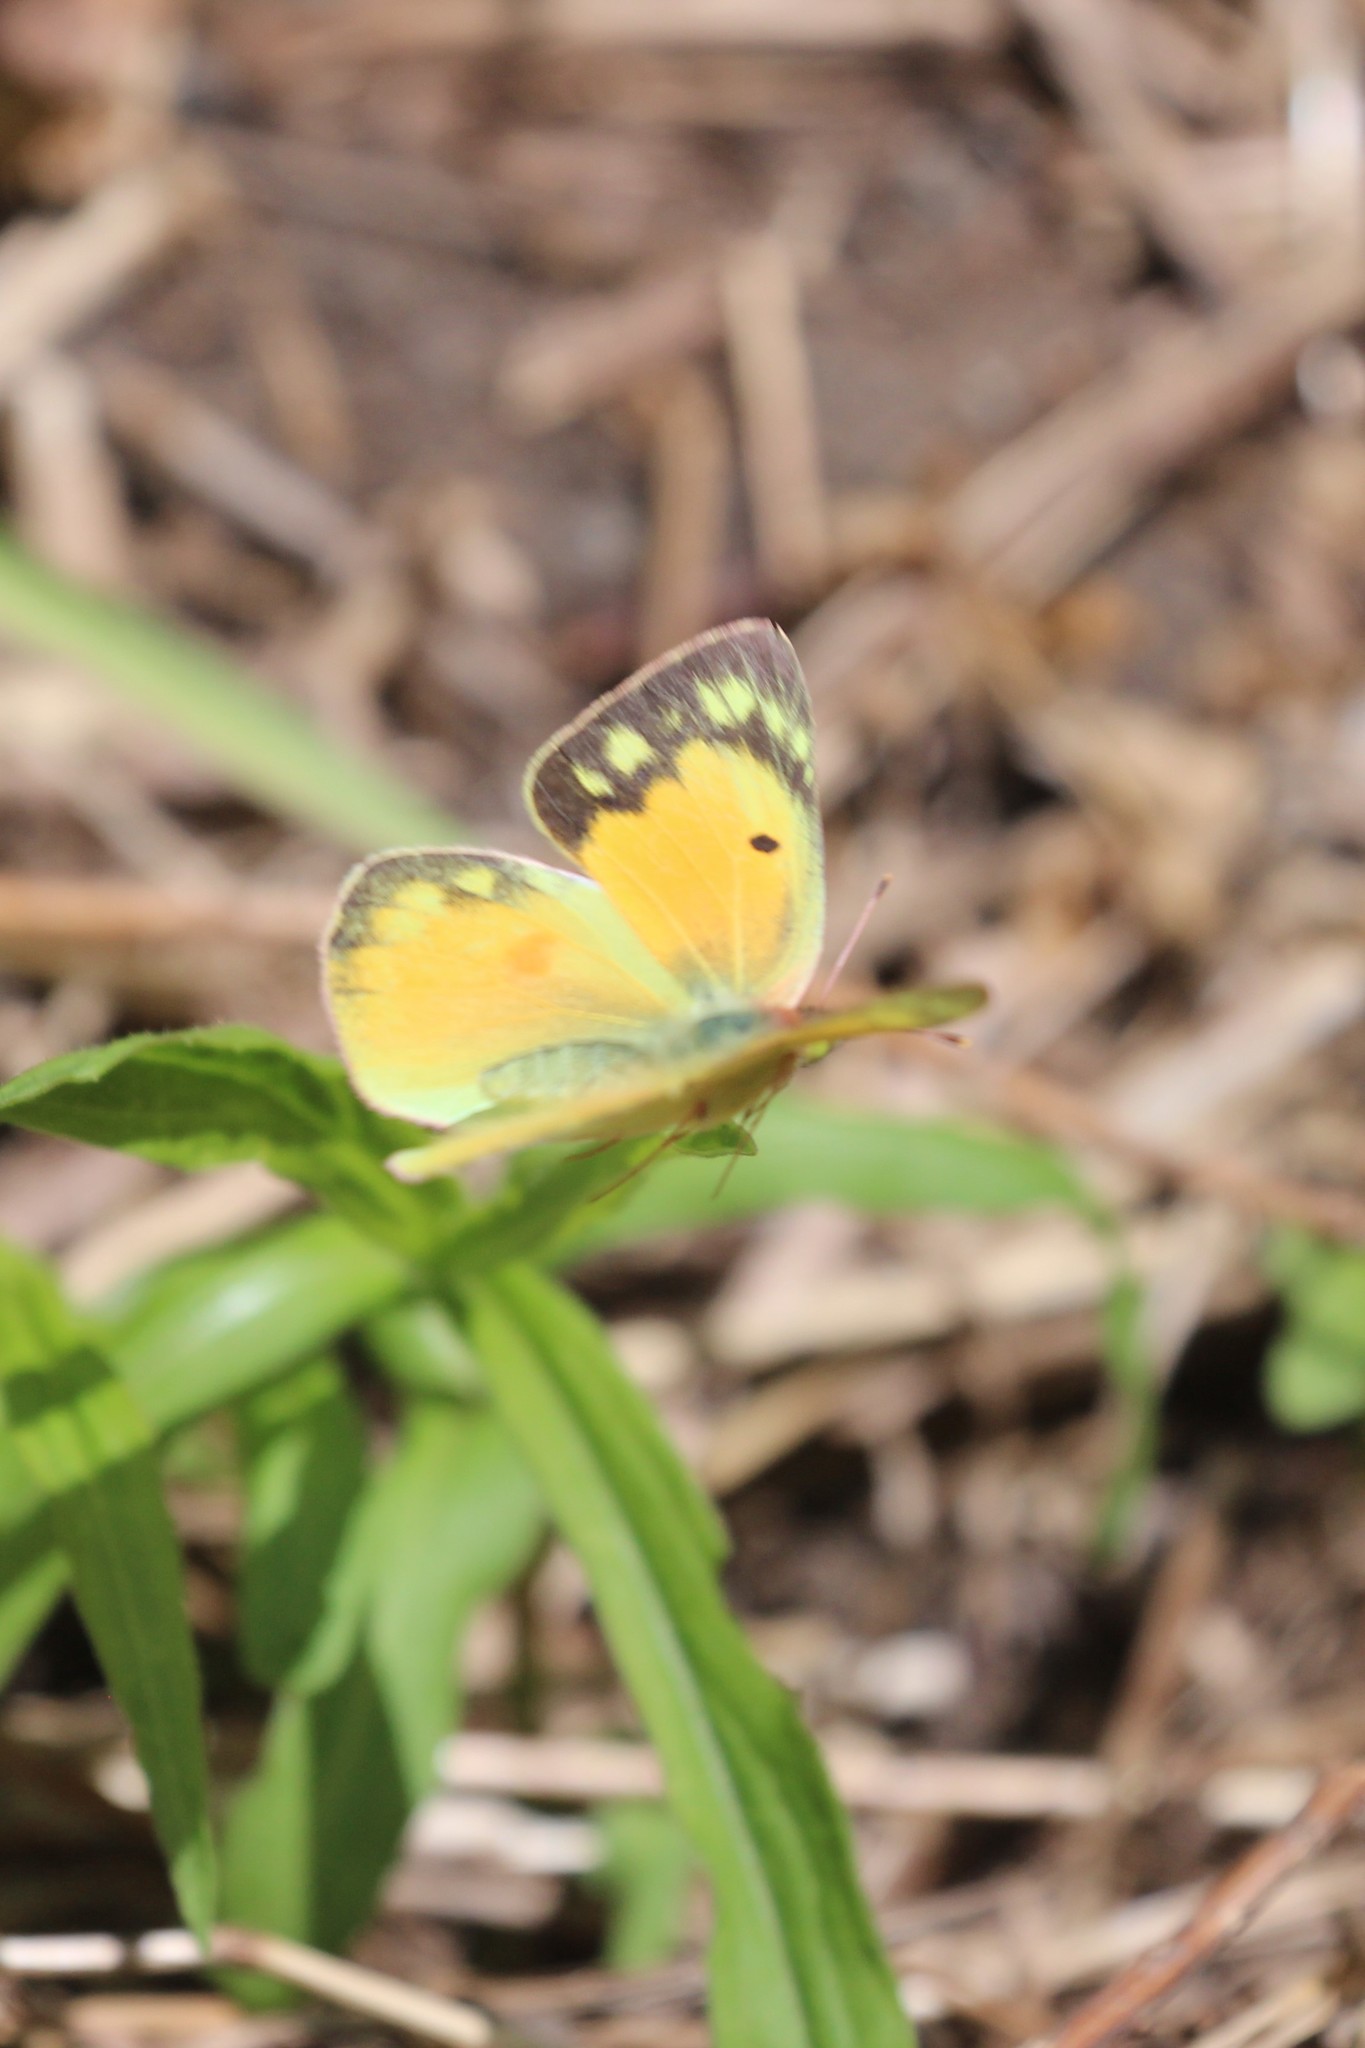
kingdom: Animalia
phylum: Arthropoda
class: Insecta
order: Lepidoptera
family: Pieridae
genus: Colias
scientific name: Colias eurytheme
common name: Alfalfa butterfly
